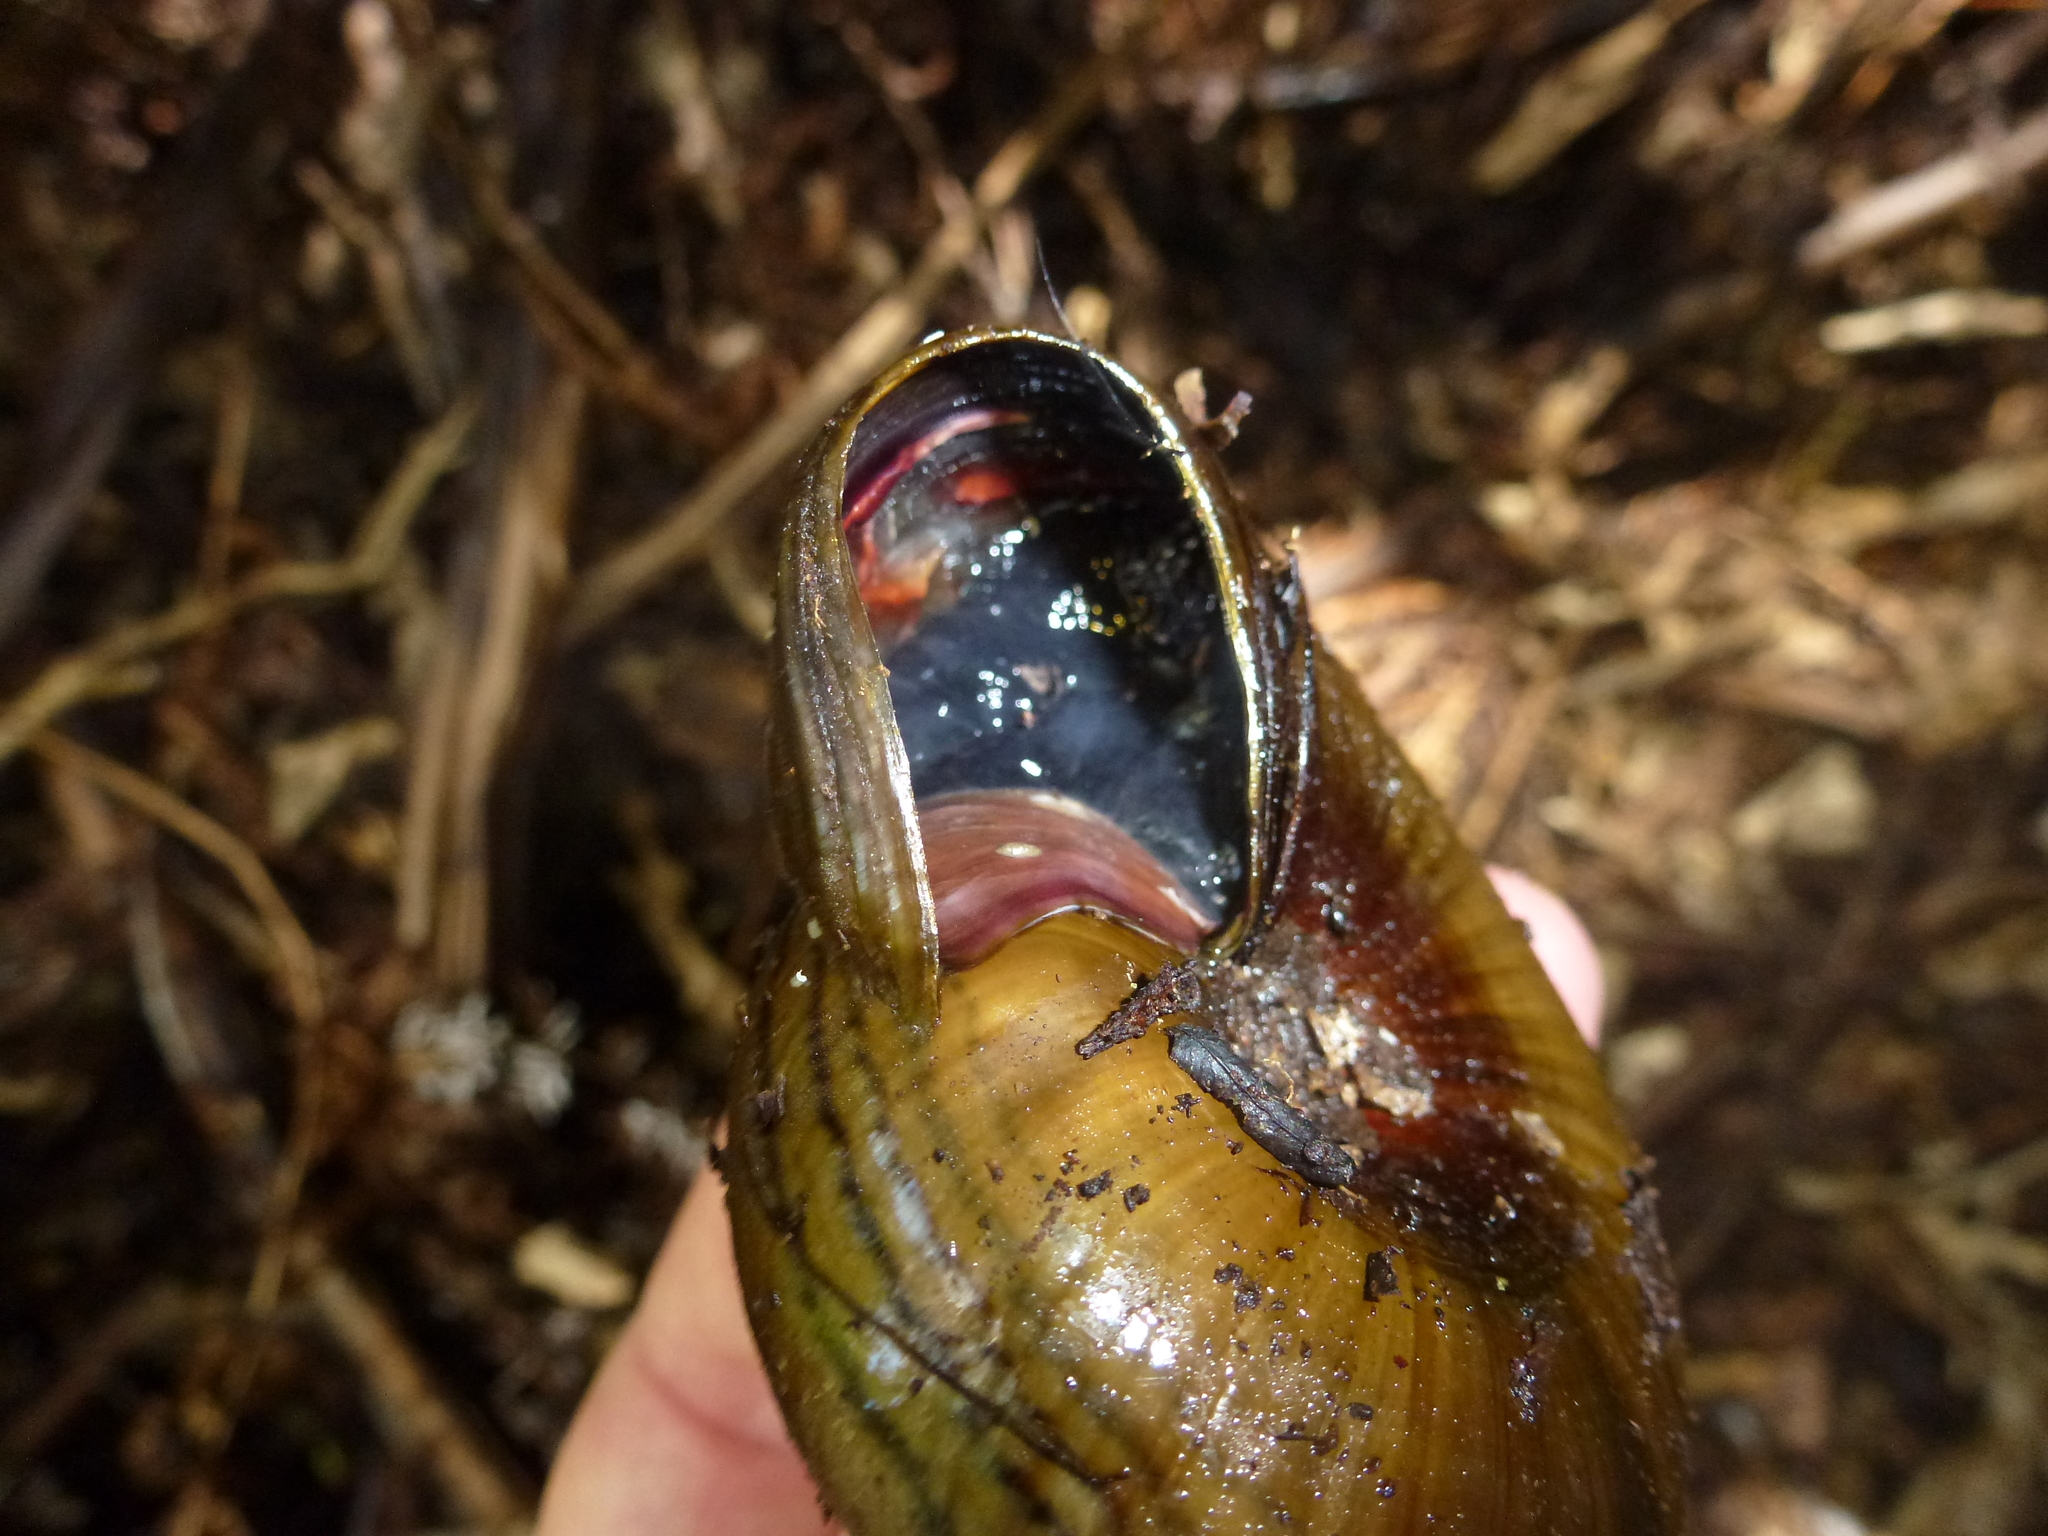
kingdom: Animalia
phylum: Mollusca
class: Gastropoda
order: Stylommatophora
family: Rhytididae
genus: Powelliphanta
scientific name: Powelliphanta hochstetteri
